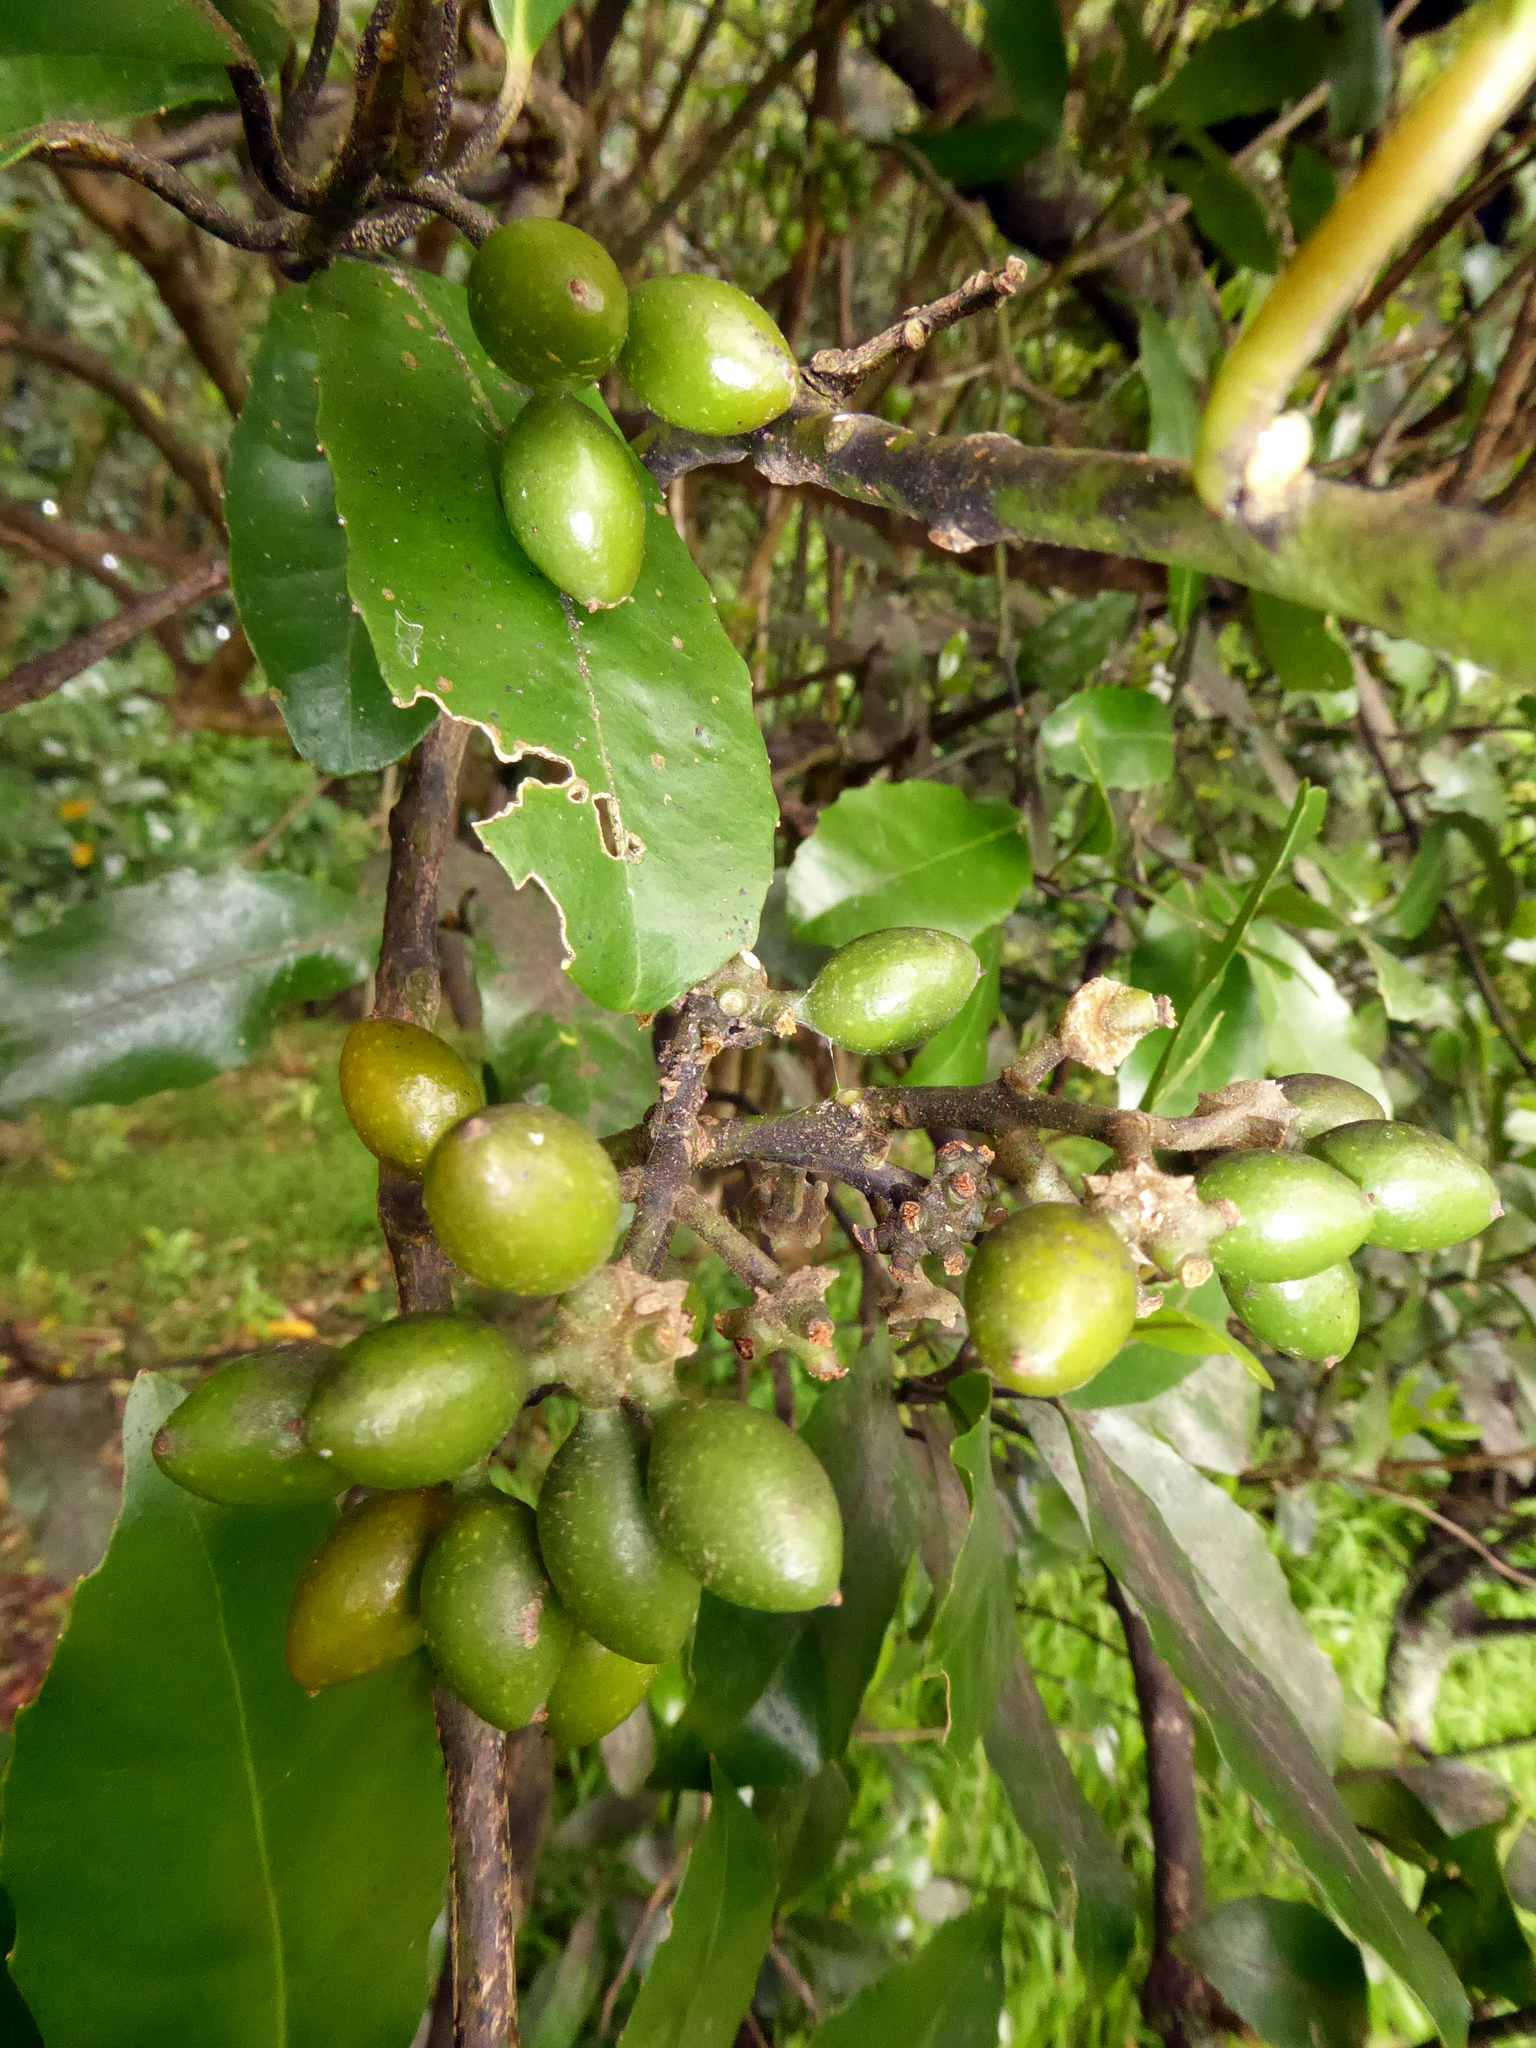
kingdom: Plantae
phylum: Tracheophyta
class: Magnoliopsida
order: Laurales
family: Monimiaceae
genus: Hedycarya
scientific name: Hedycarya arborea
